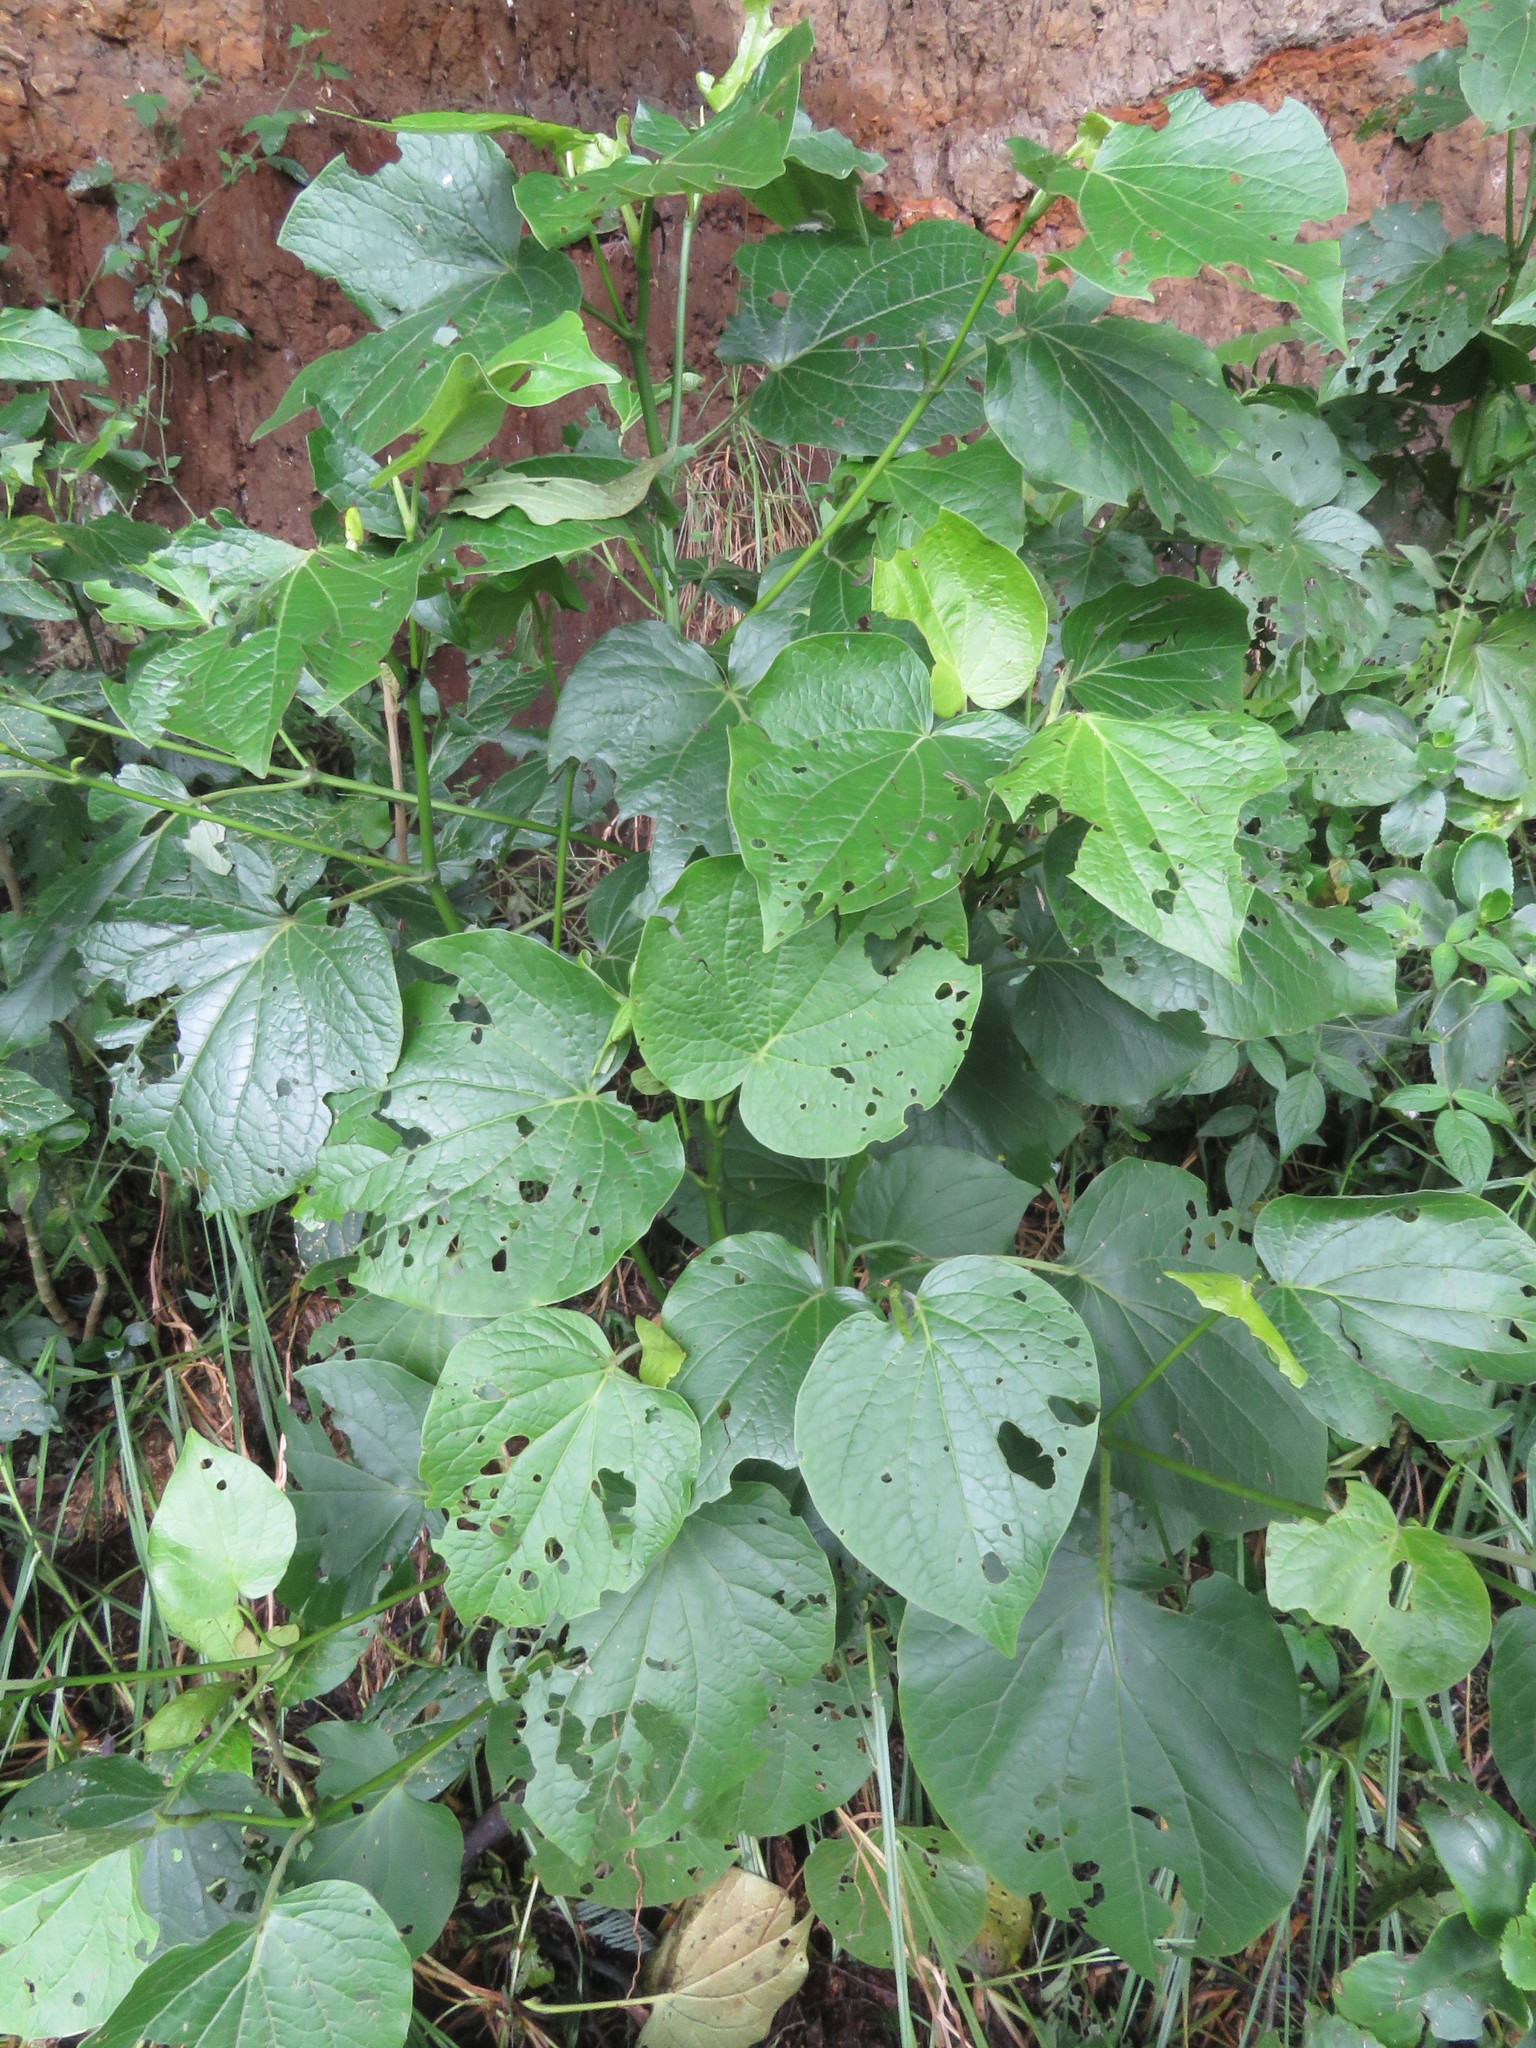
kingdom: Plantae
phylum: Tracheophyta
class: Magnoliopsida
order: Piperales
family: Piperaceae
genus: Piper
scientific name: Piper barbatum
